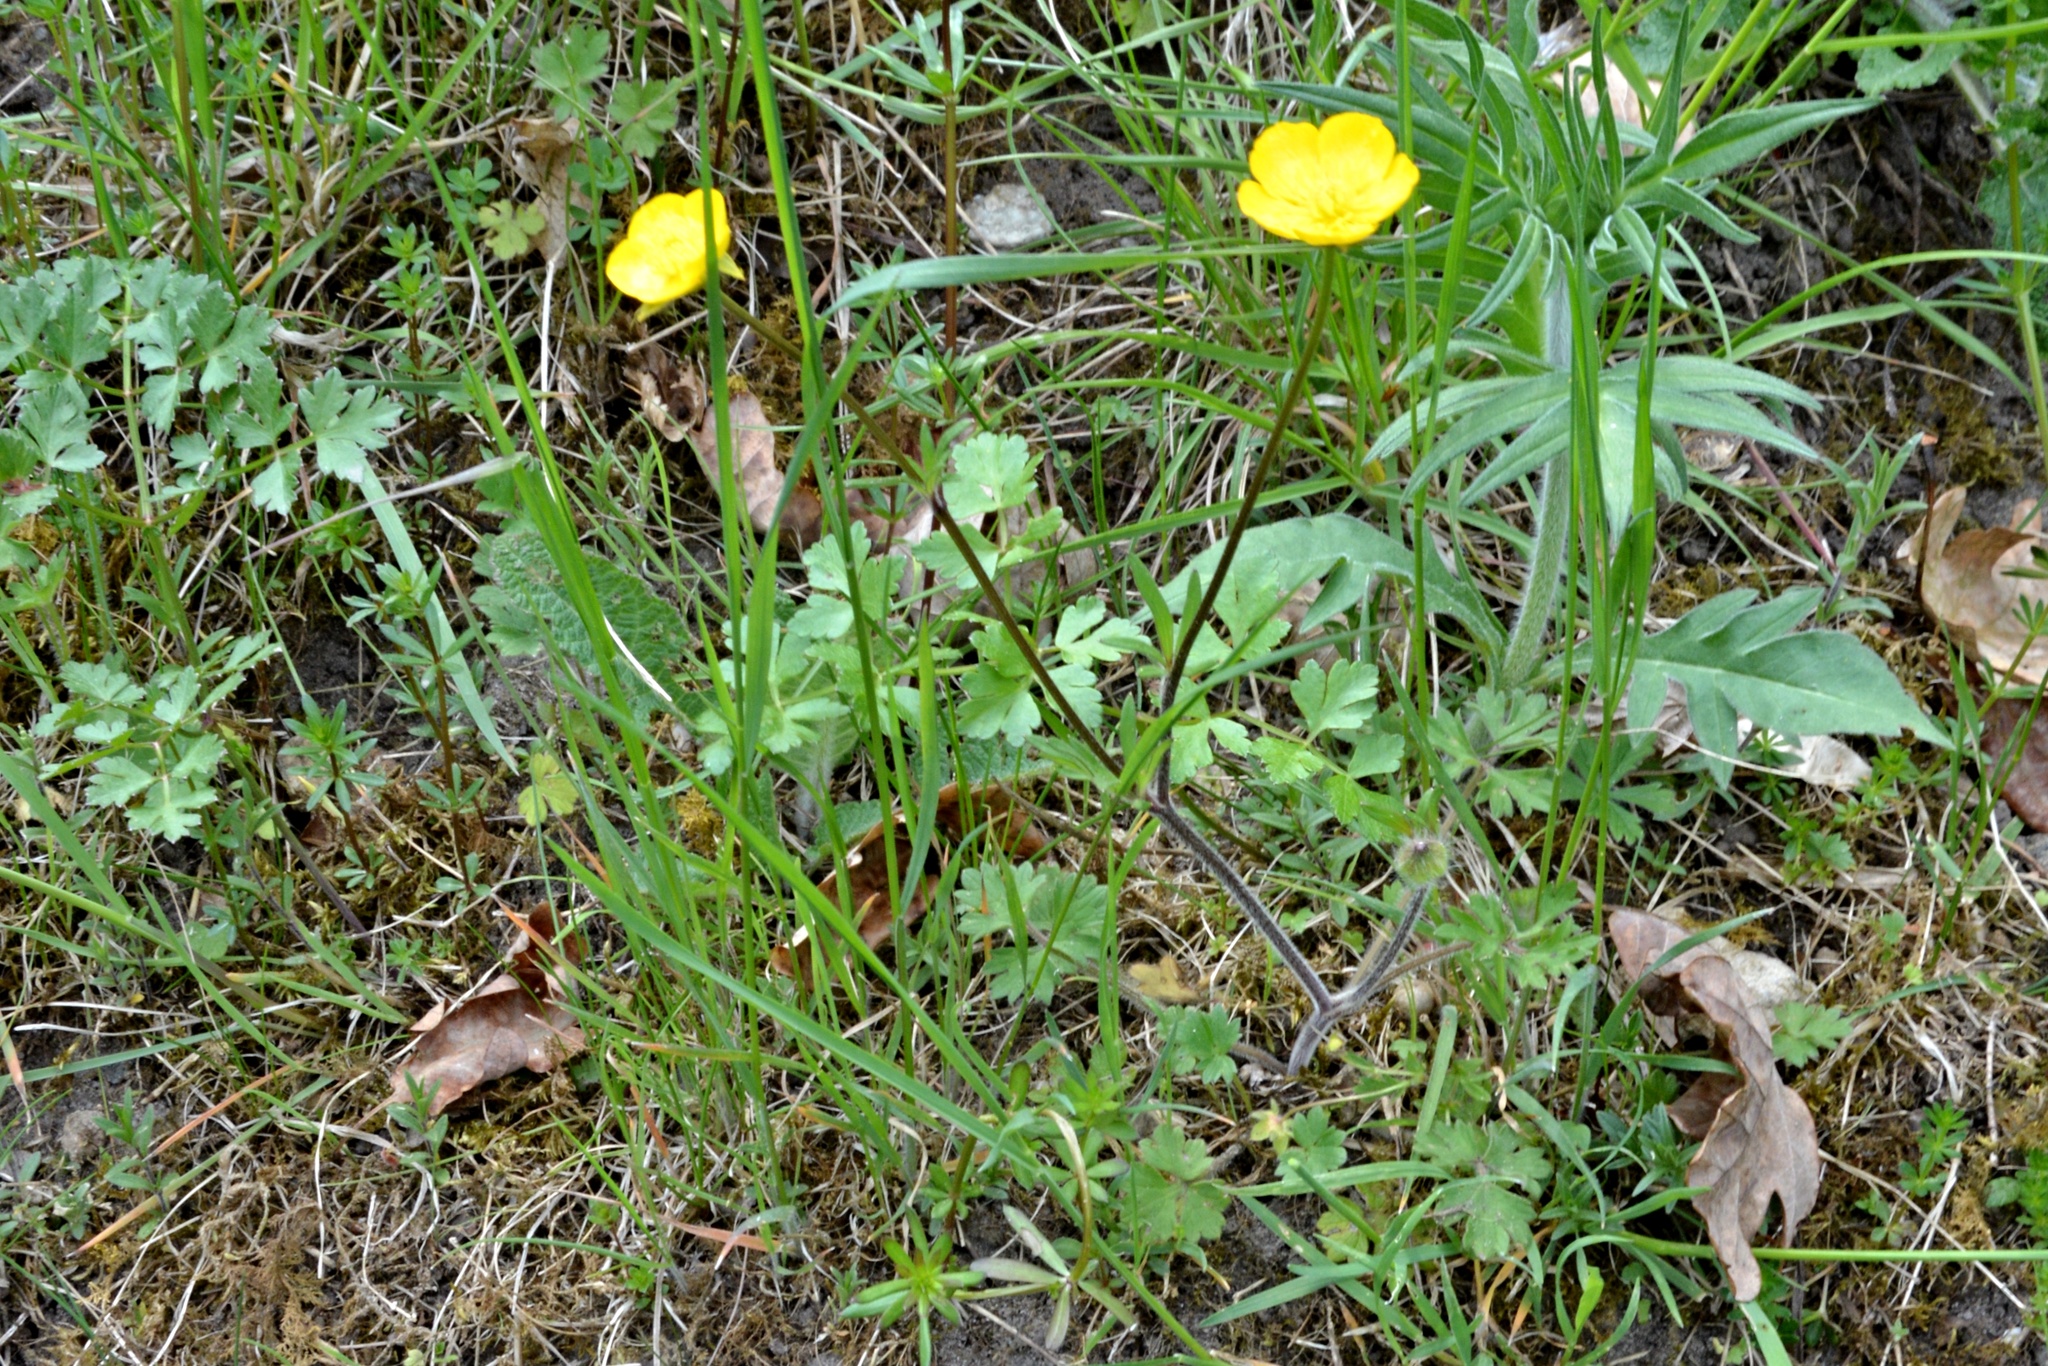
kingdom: Plantae
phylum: Tracheophyta
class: Magnoliopsida
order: Ranunculales
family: Ranunculaceae
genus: Ranunculus
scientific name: Ranunculus bulbosus
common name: Bulbous buttercup
